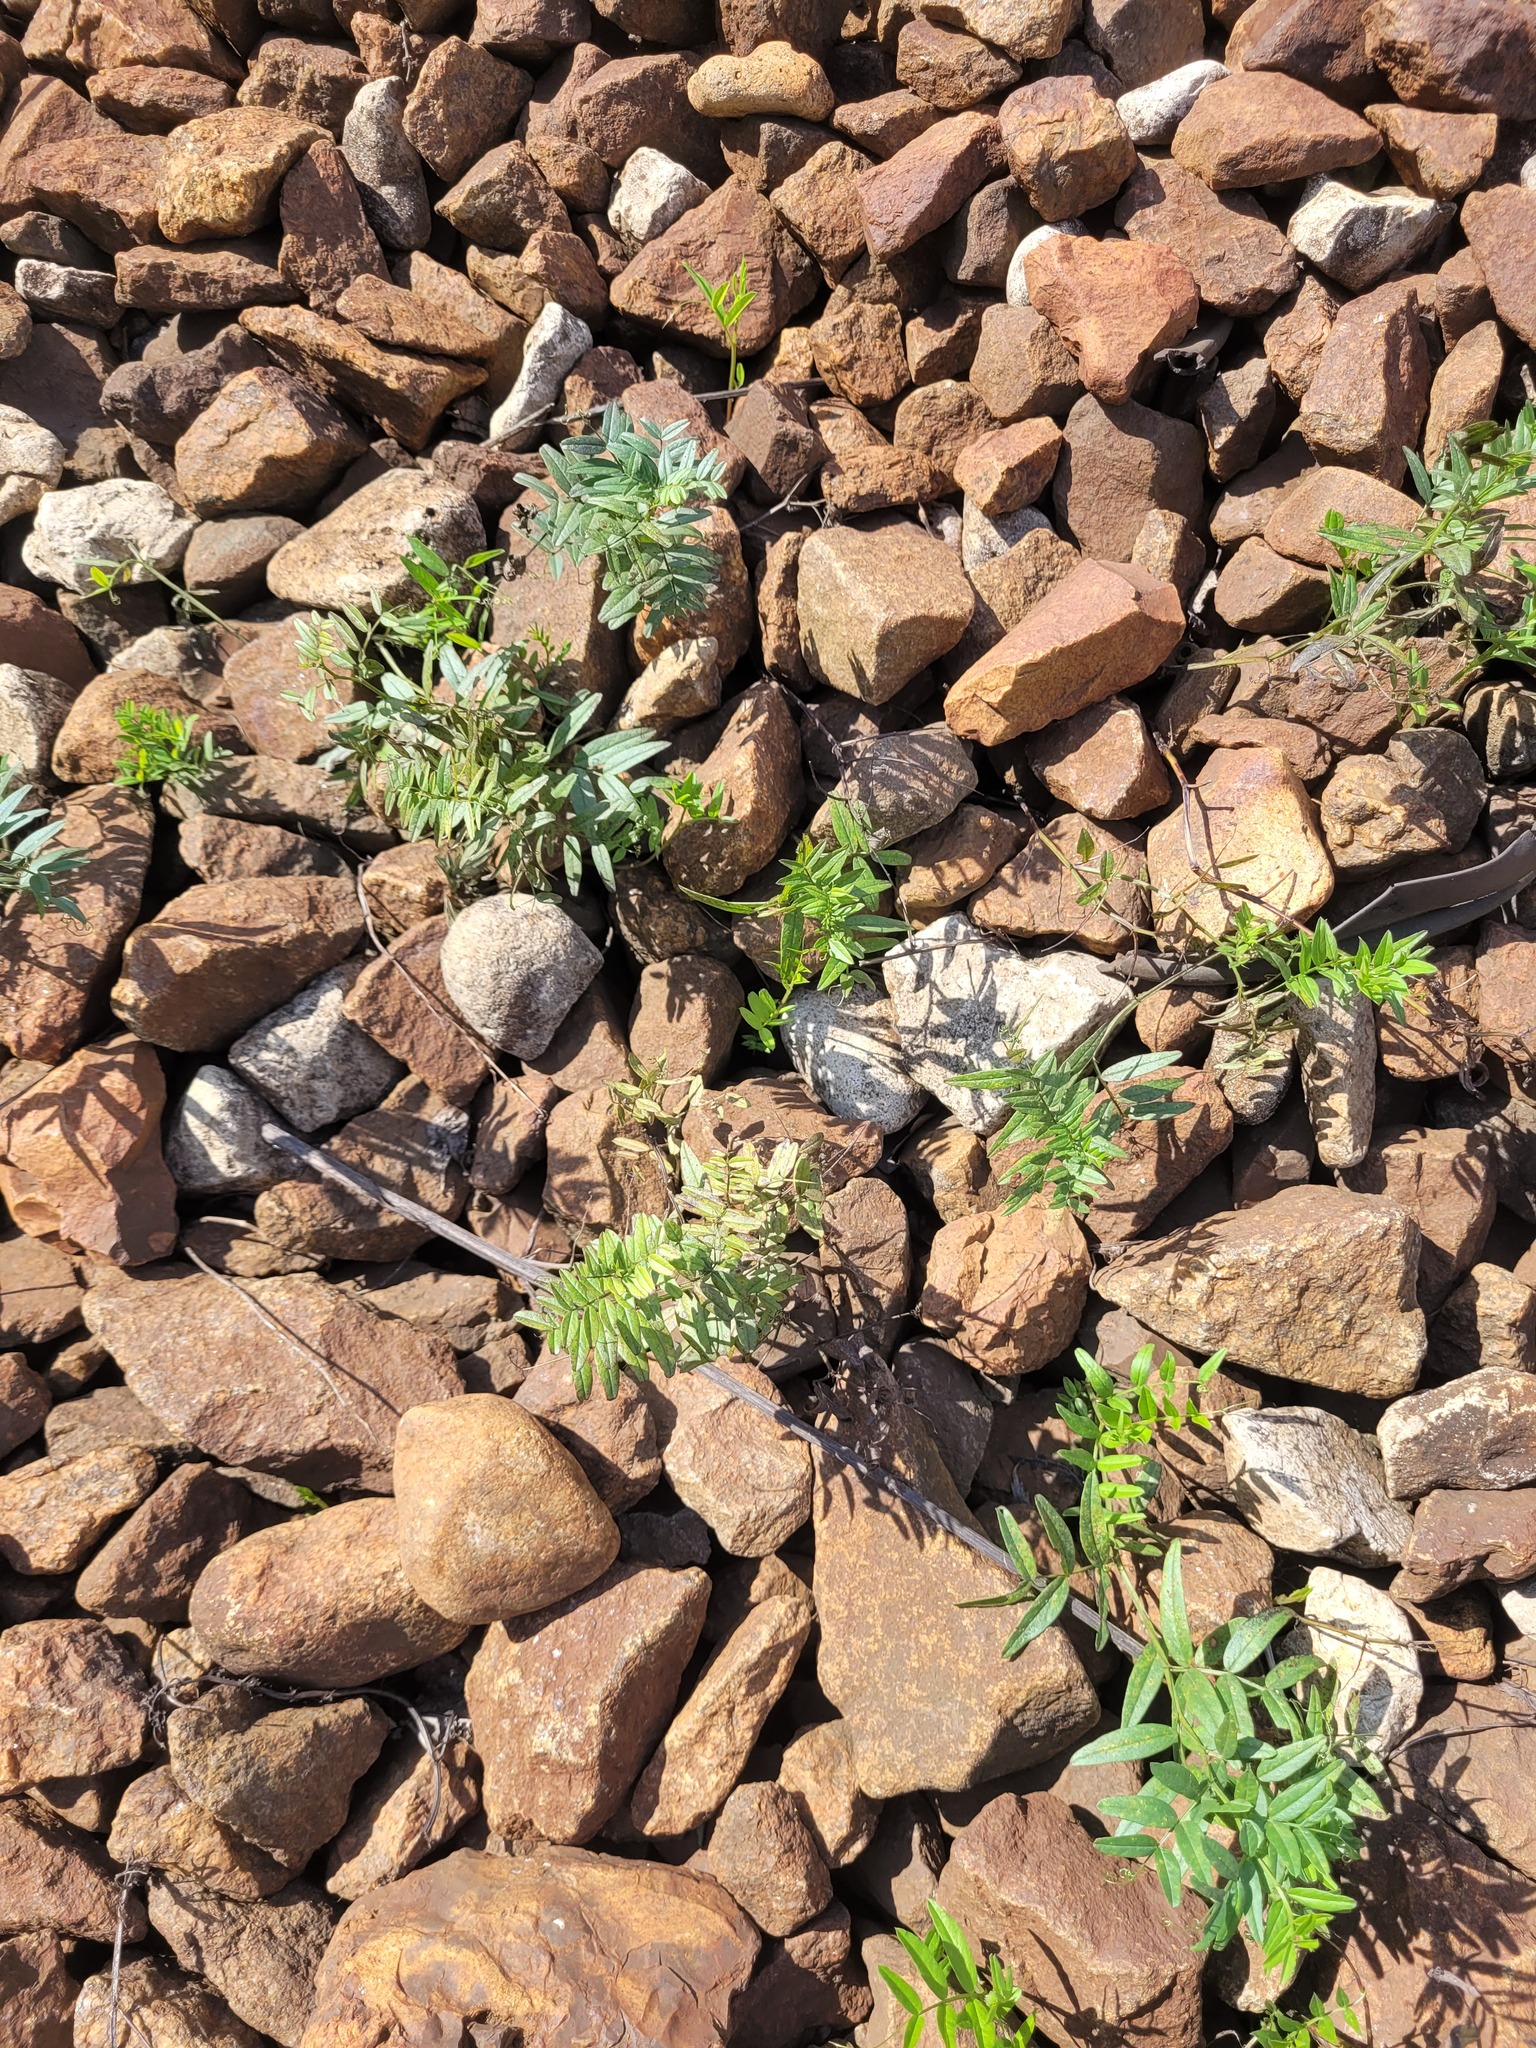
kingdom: Plantae
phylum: Tracheophyta
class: Magnoliopsida
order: Fabales
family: Fabaceae
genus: Vicia
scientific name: Vicia sepium
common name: Bush vetch
